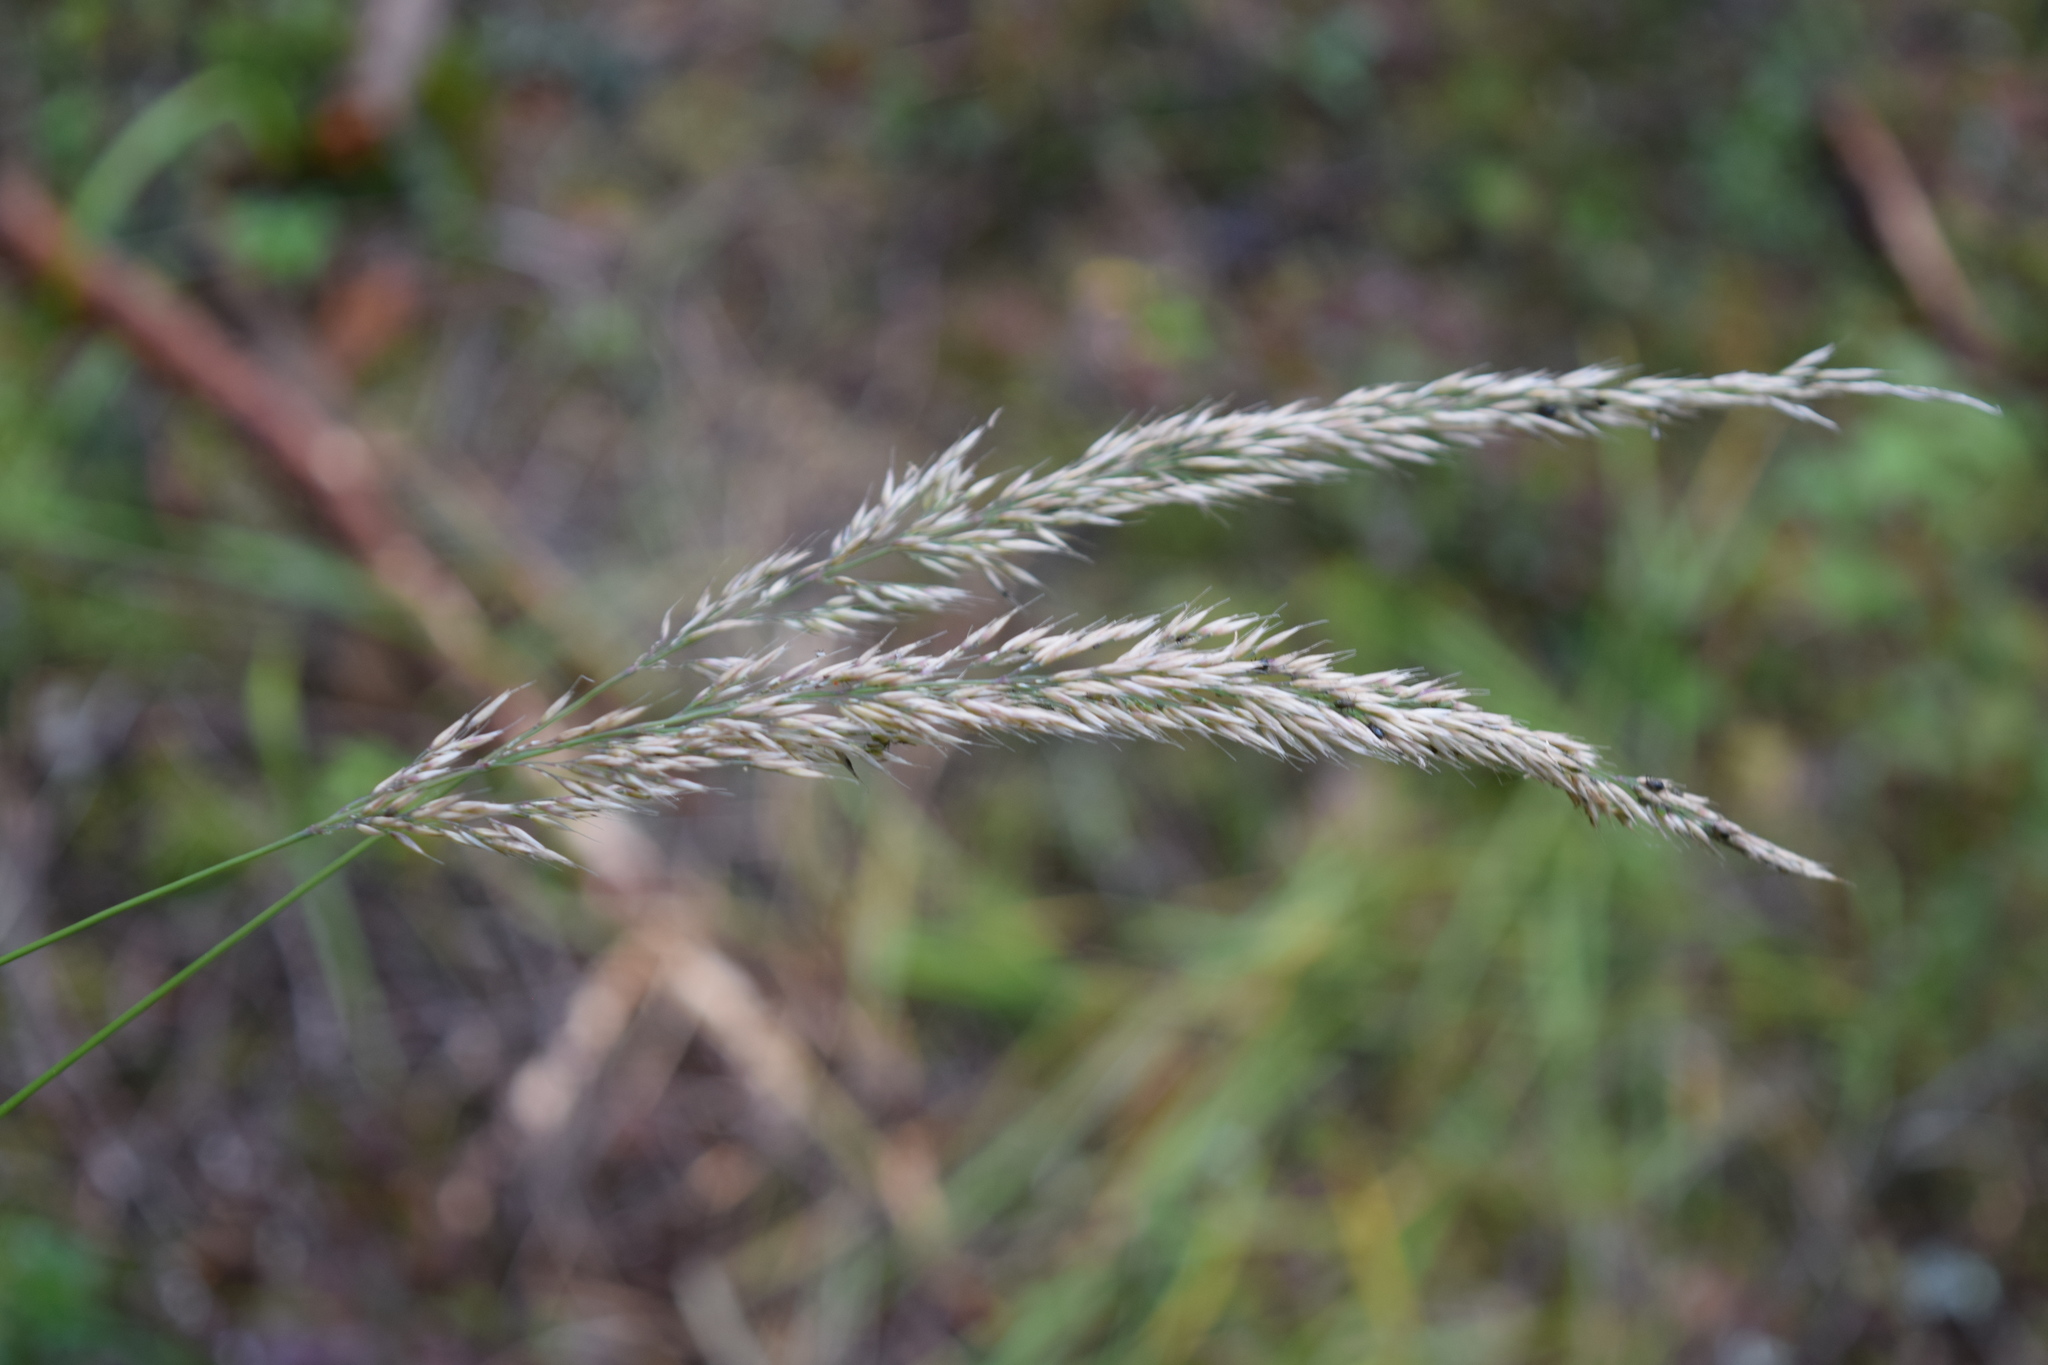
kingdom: Plantae
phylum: Tracheophyta
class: Liliopsida
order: Poales
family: Poaceae
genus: Calamagrostis
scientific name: Calamagrostis arundinacea
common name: Metskastik
